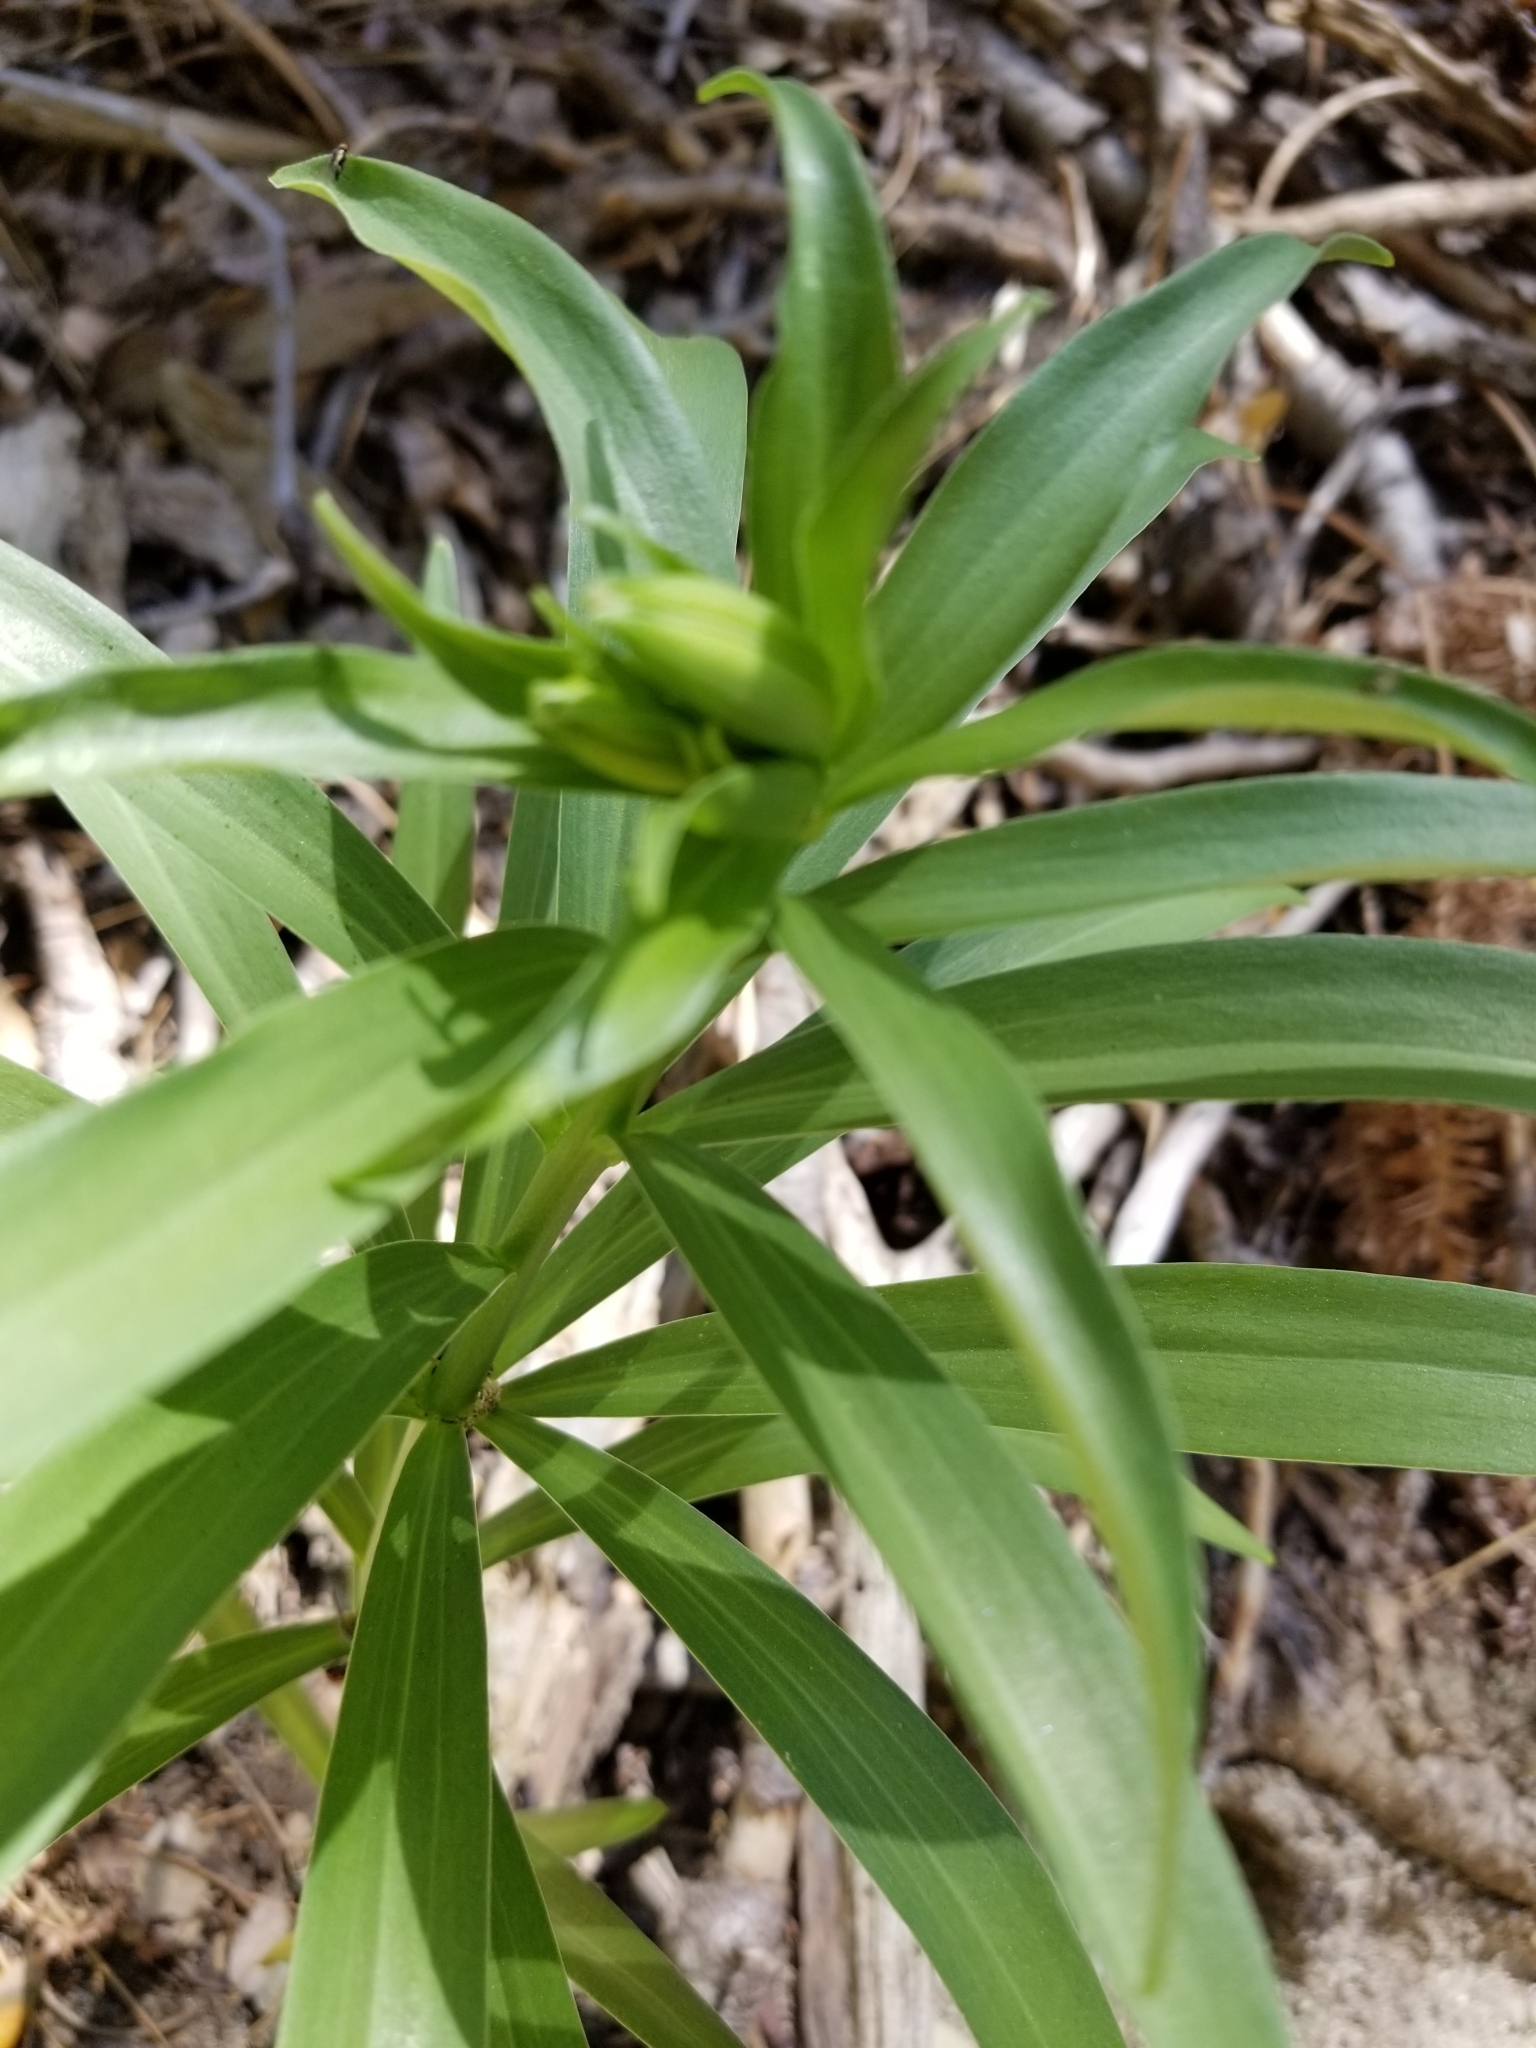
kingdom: Plantae
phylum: Tracheophyta
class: Liliopsida
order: Liliales
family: Liliaceae
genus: Lilium
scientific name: Lilium parryi
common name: Lemon lily
